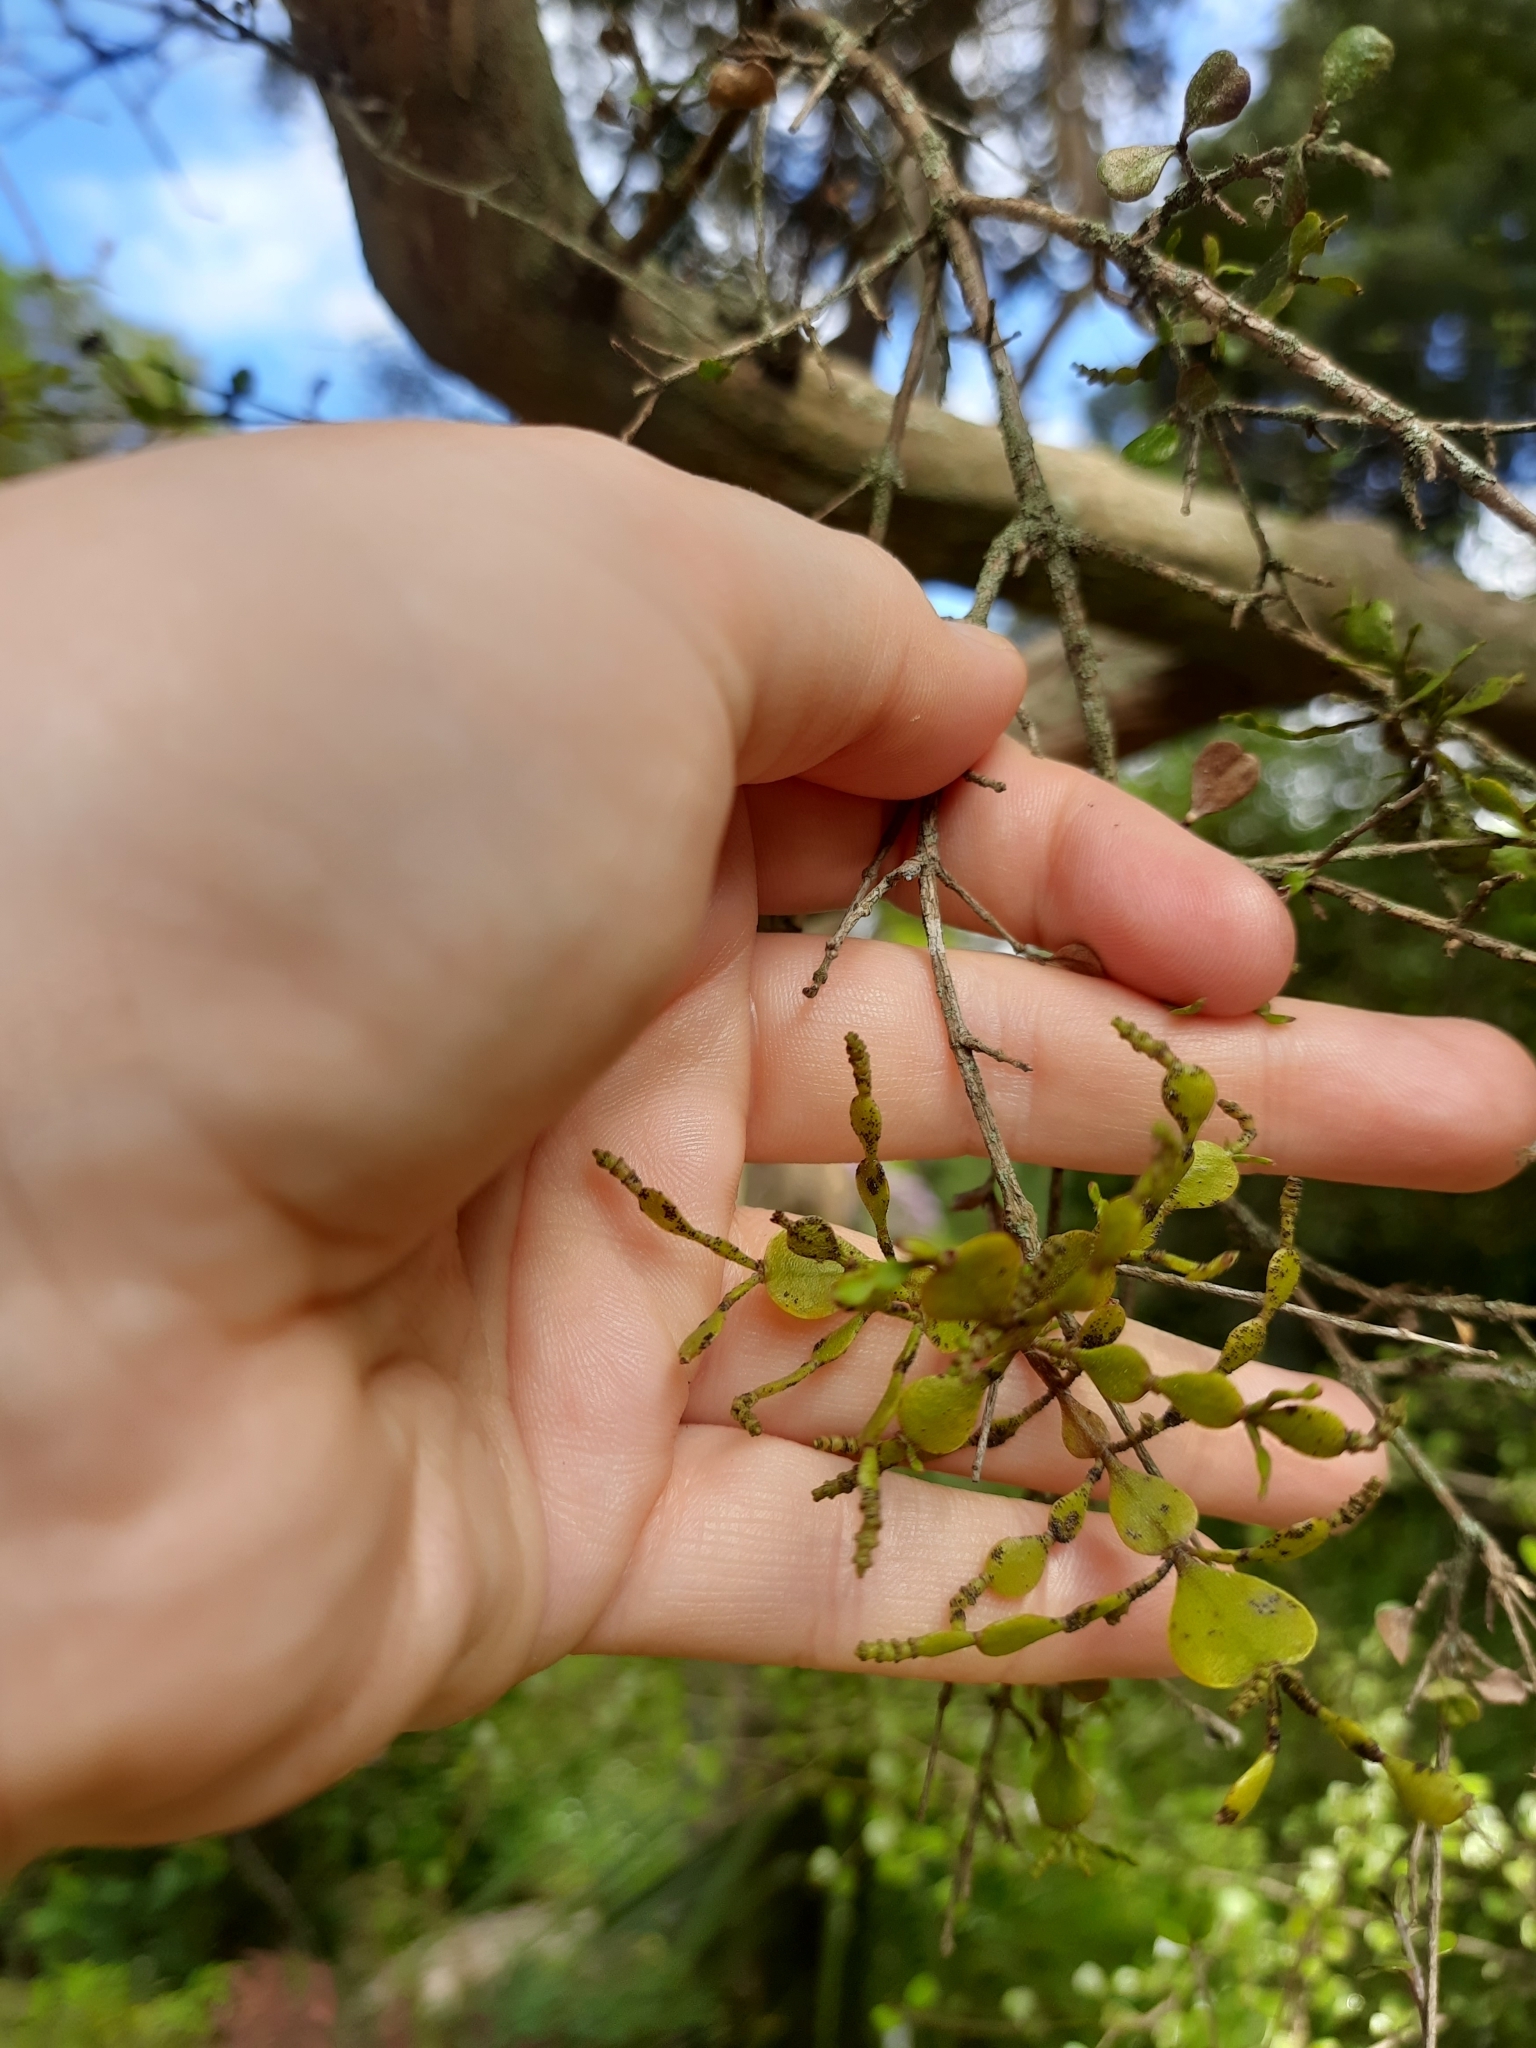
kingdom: Plantae
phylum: Tracheophyta
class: Magnoliopsida
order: Santalales
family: Viscaceae
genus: Korthalsella
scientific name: Korthalsella lindsayi
